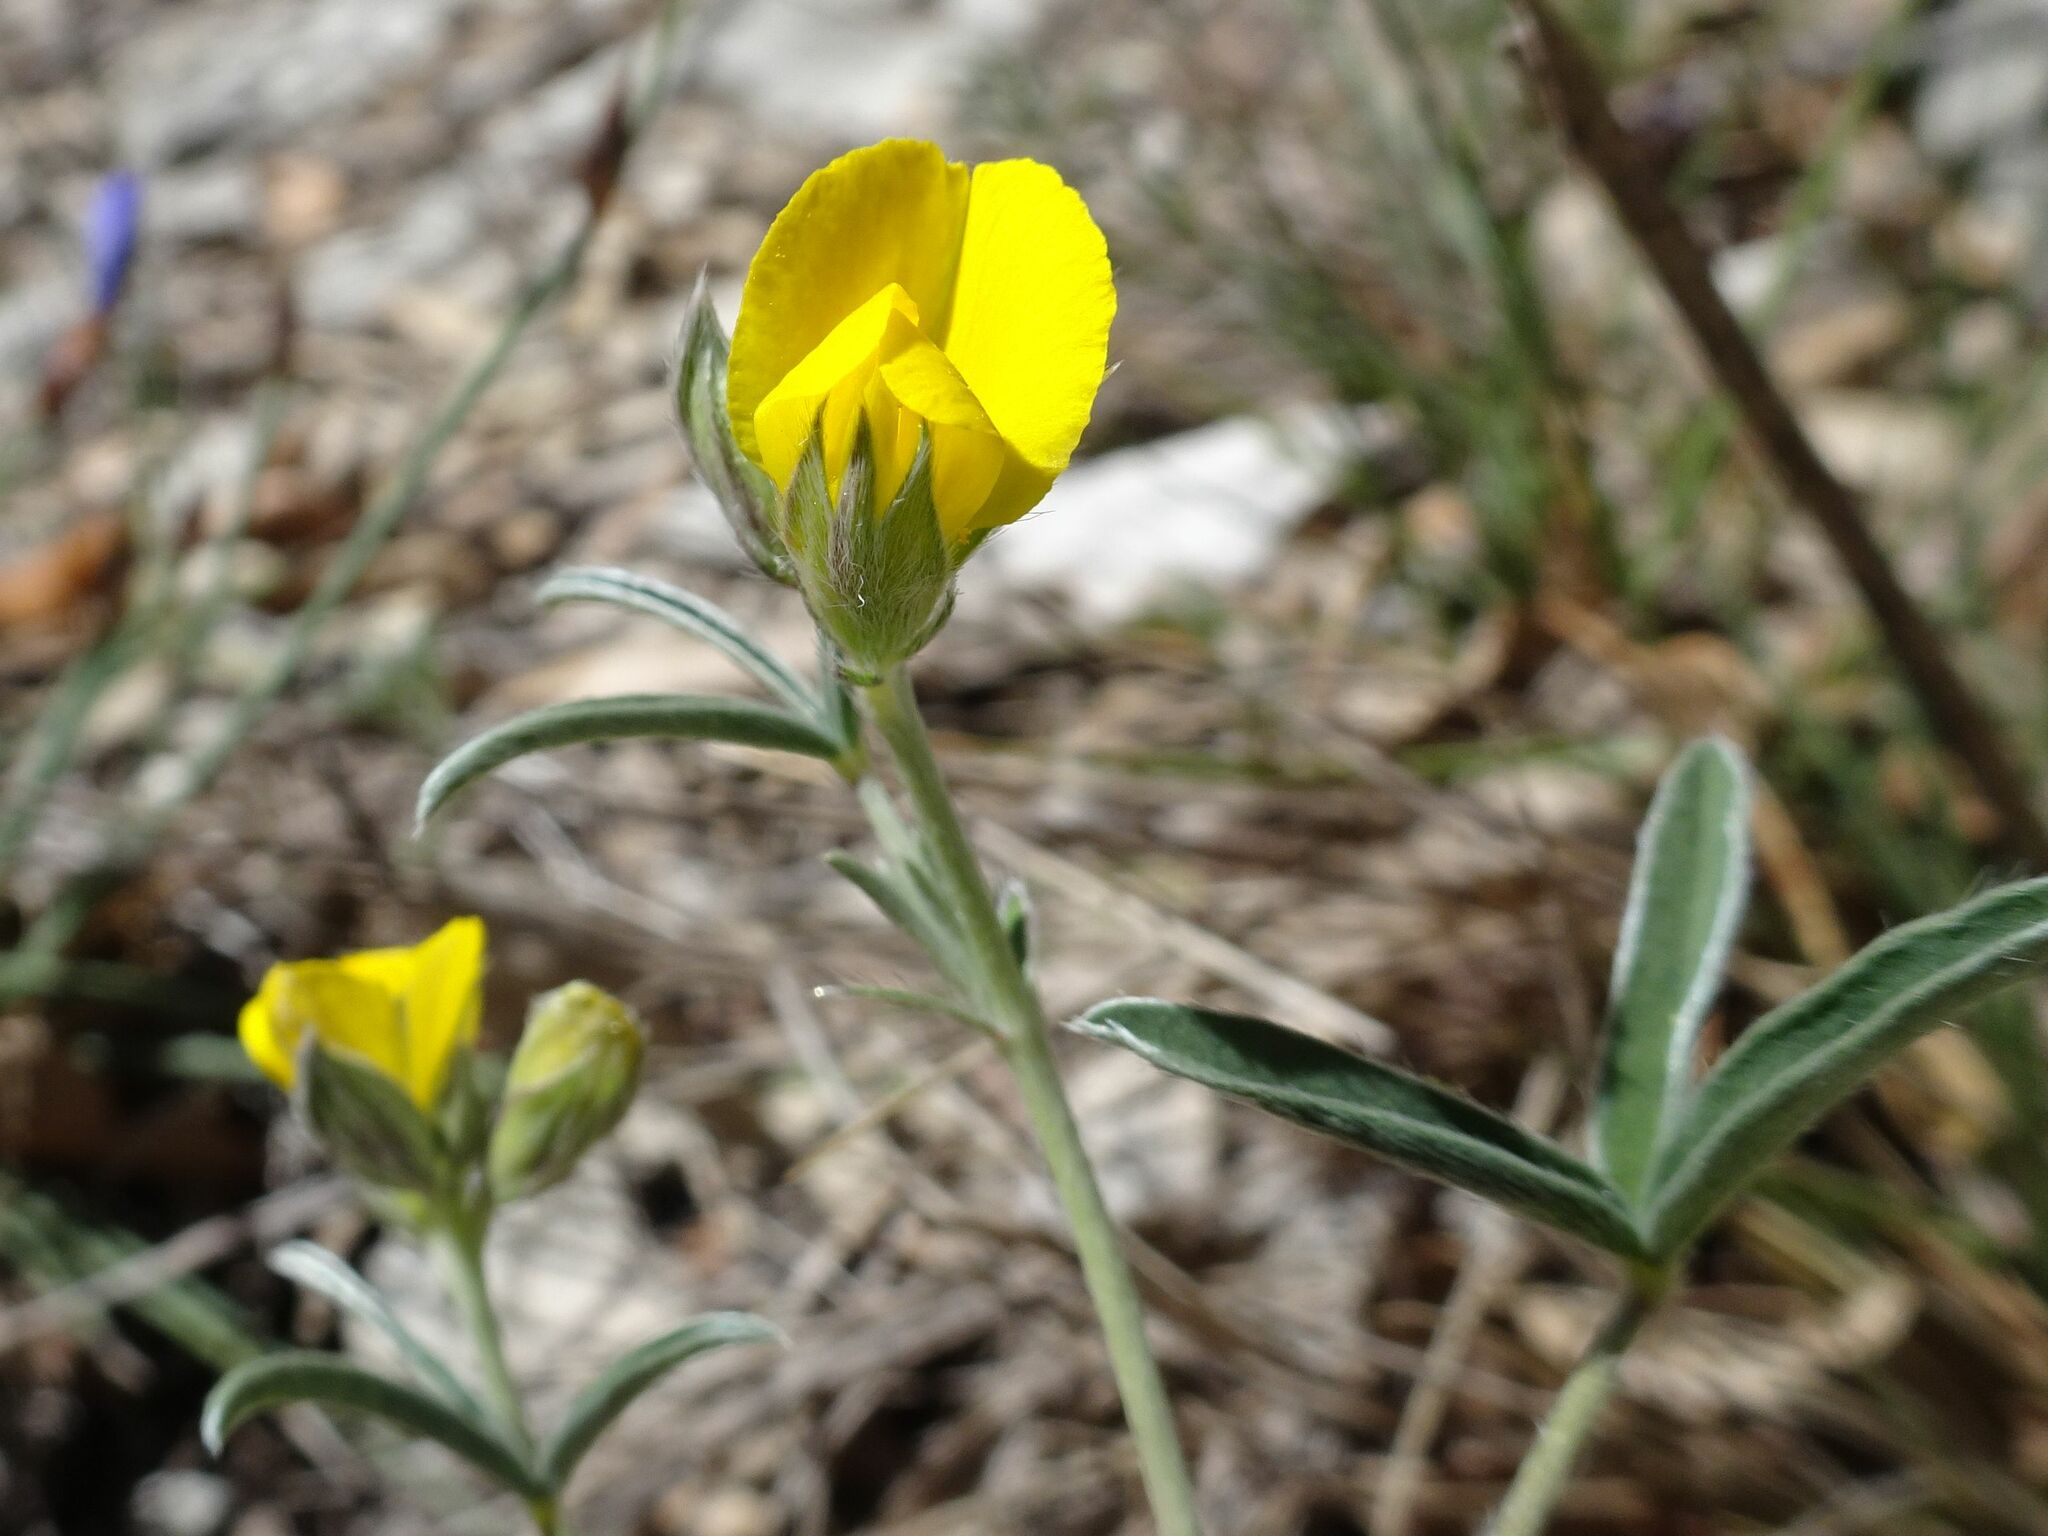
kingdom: Plantae
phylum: Tracheophyta
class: Magnoliopsida
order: Fabales
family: Fabaceae
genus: Argyrolobium
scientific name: Argyrolobium zanonii
